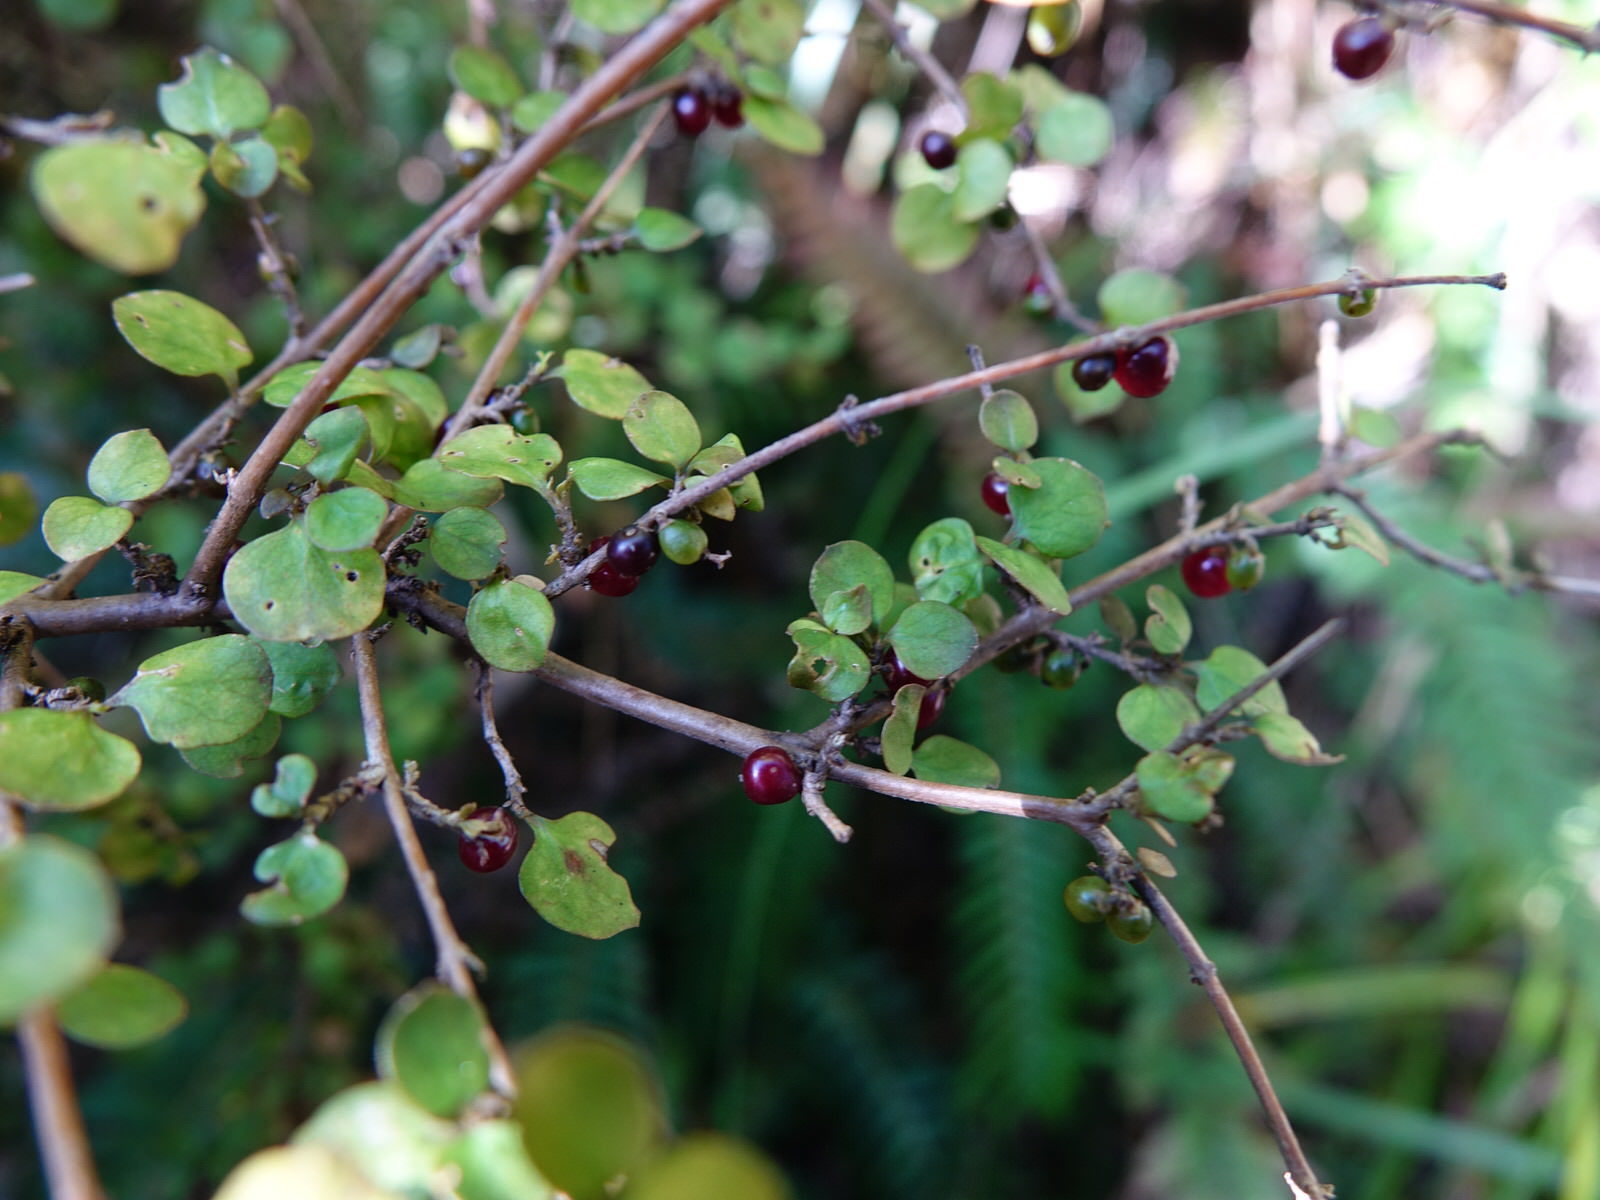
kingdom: Plantae
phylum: Tracheophyta
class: Magnoliopsida
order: Gentianales
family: Rubiaceae
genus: Coprosma
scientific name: Coprosma rhamnoides
